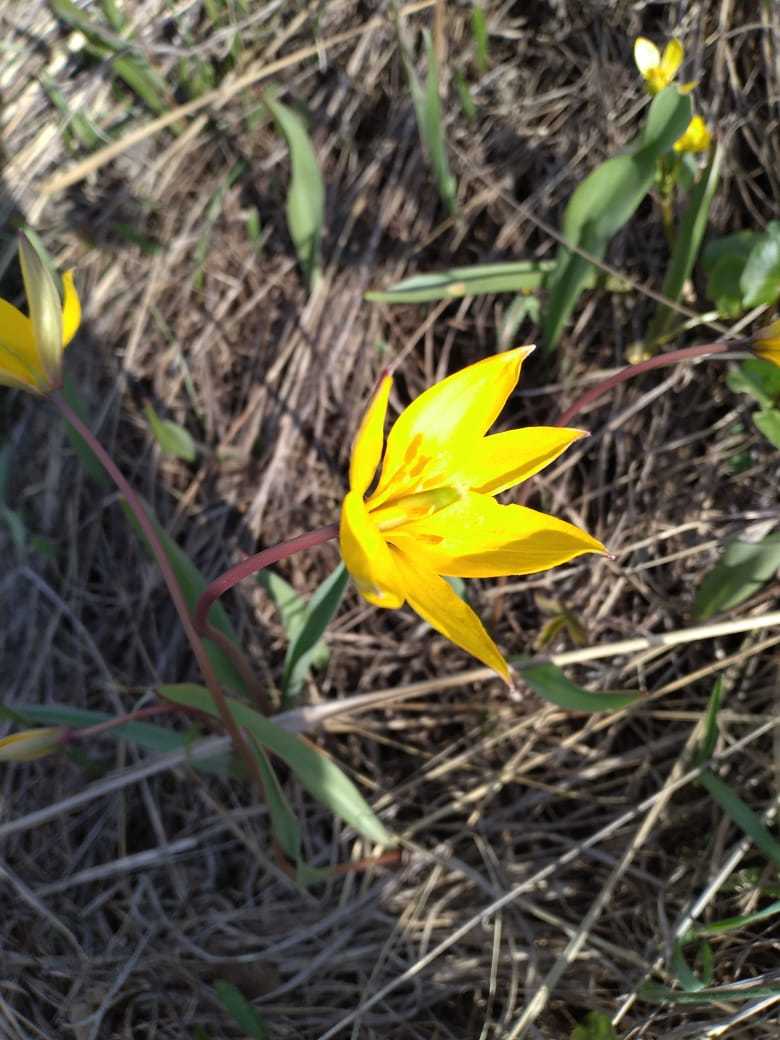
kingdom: Plantae
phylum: Tracheophyta
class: Liliopsida
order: Liliales
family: Liliaceae
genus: Tulipa
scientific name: Tulipa sylvestris
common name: Wild tulip
